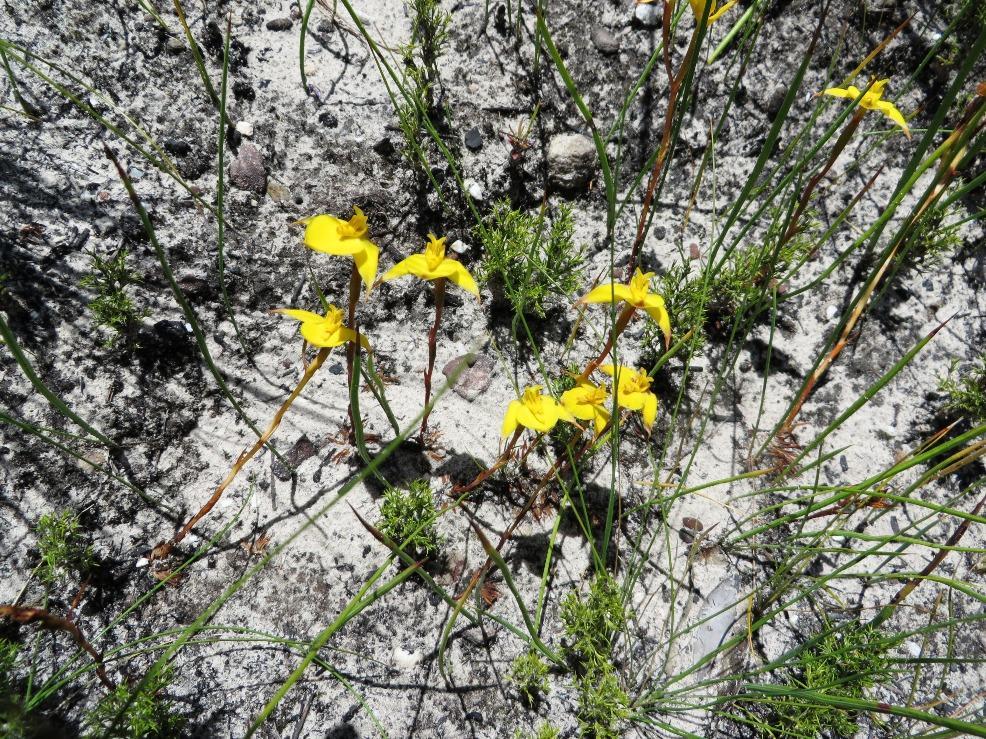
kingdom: Plantae
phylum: Tracheophyta
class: Liliopsida
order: Asparagales
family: Orchidaceae
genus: Disa
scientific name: Disa tenuifolia
